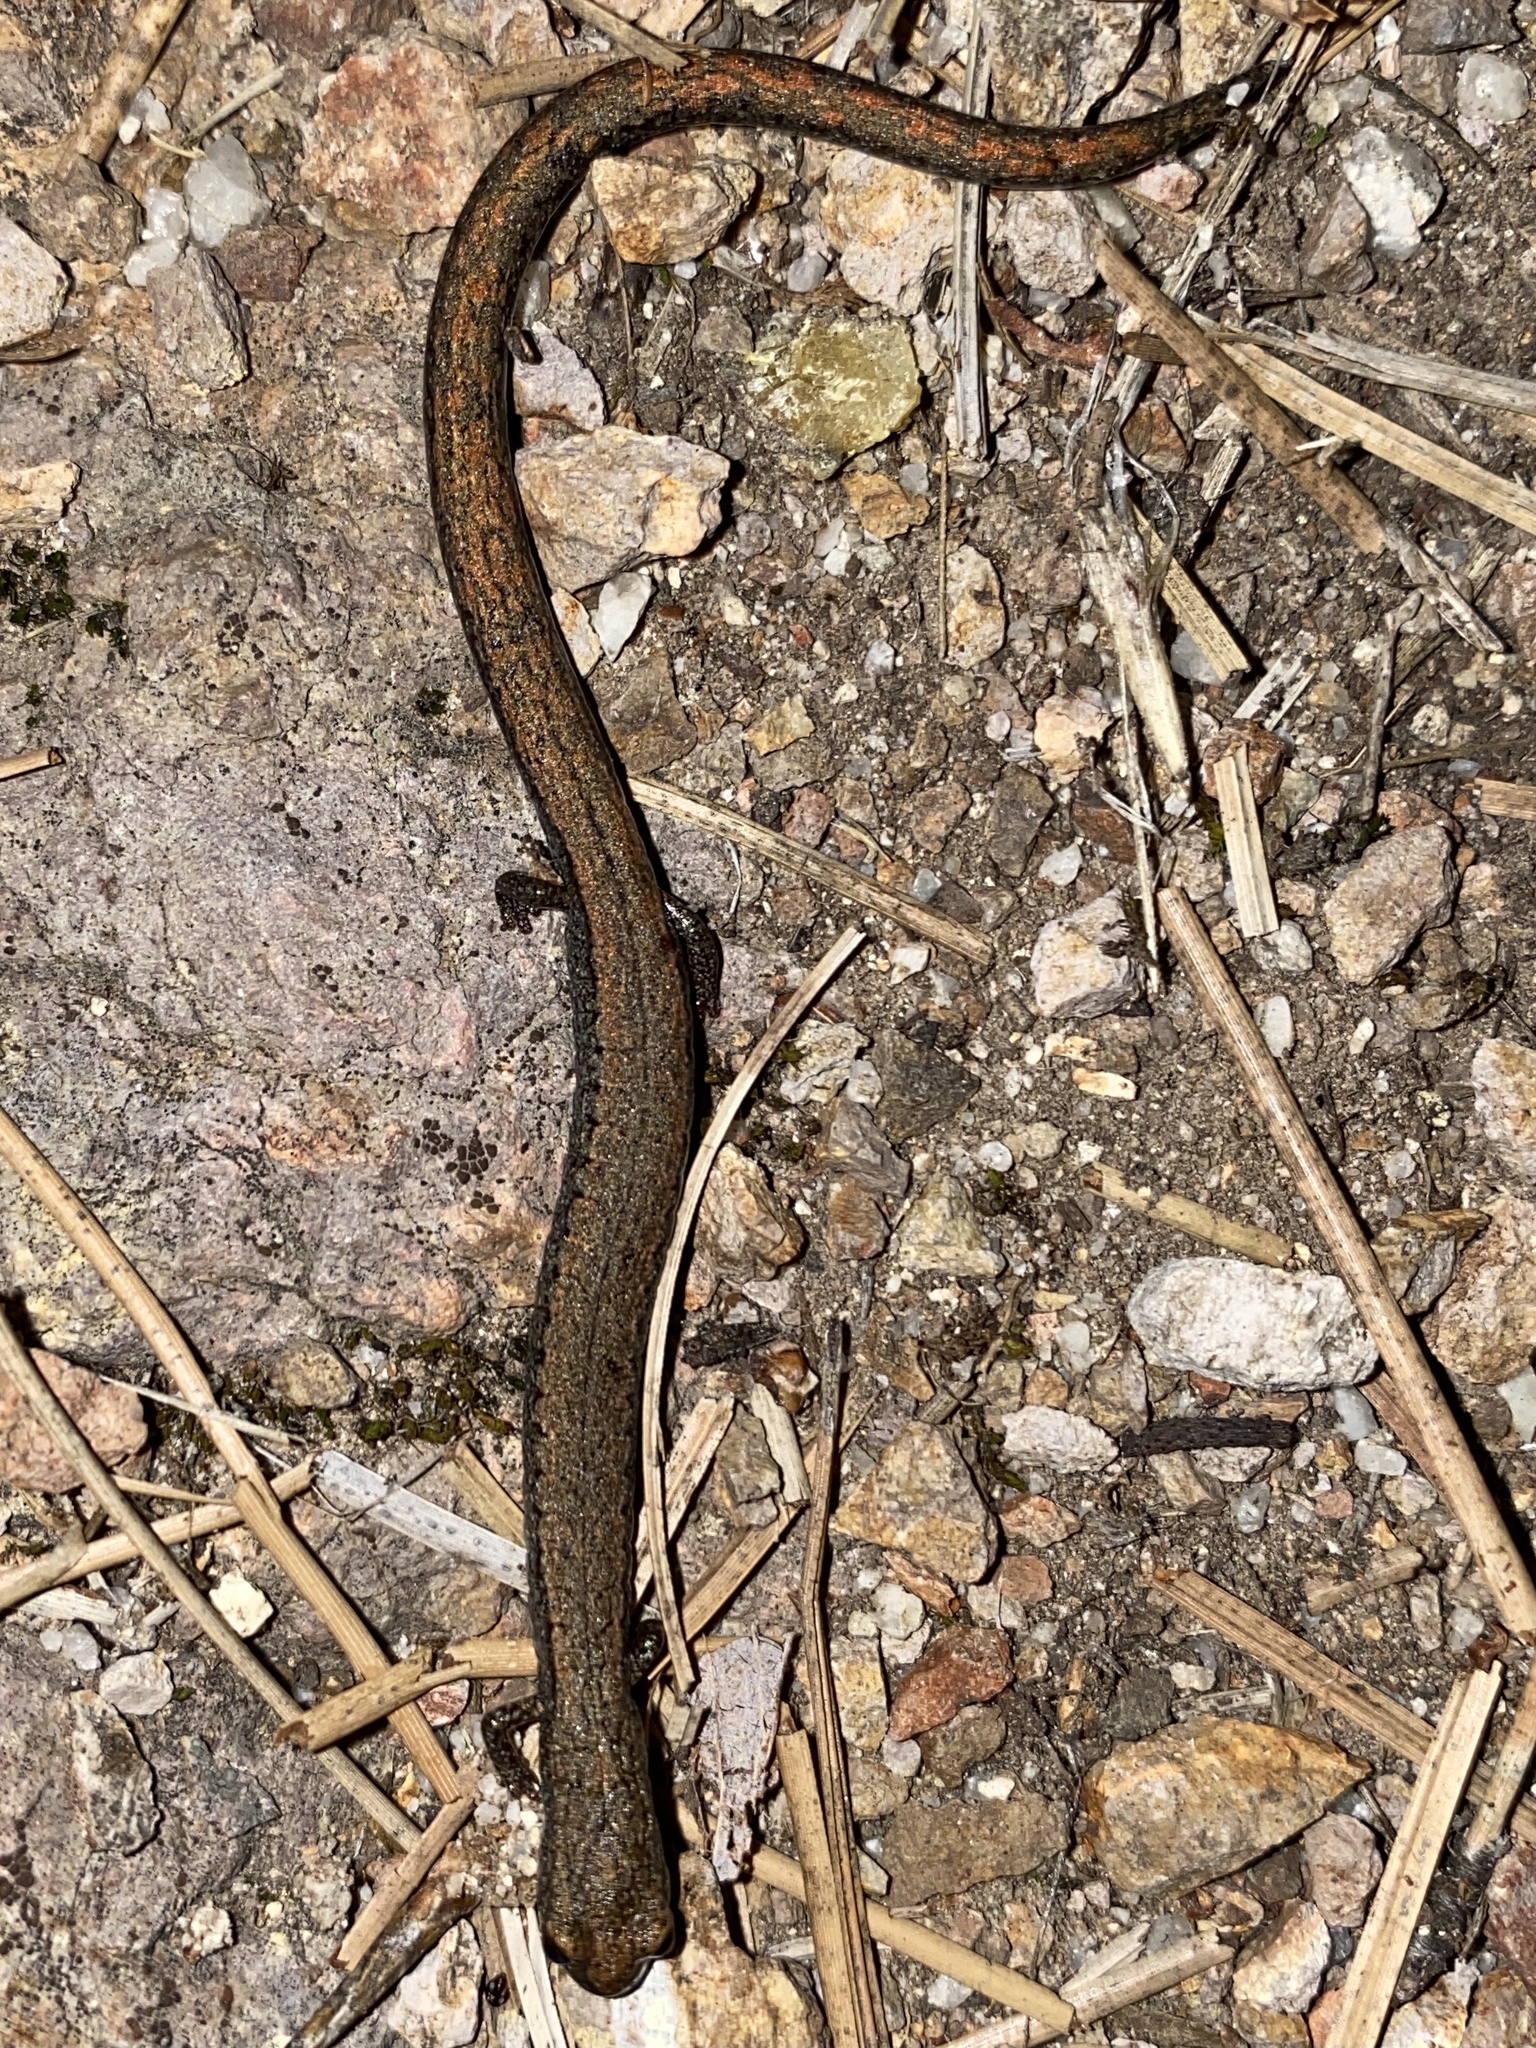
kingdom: Animalia
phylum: Chordata
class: Amphibia
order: Caudata
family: Plethodontidae
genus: Batrachoseps
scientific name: Batrachoseps gavilanensis
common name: Gabilan mountains slender salamander
